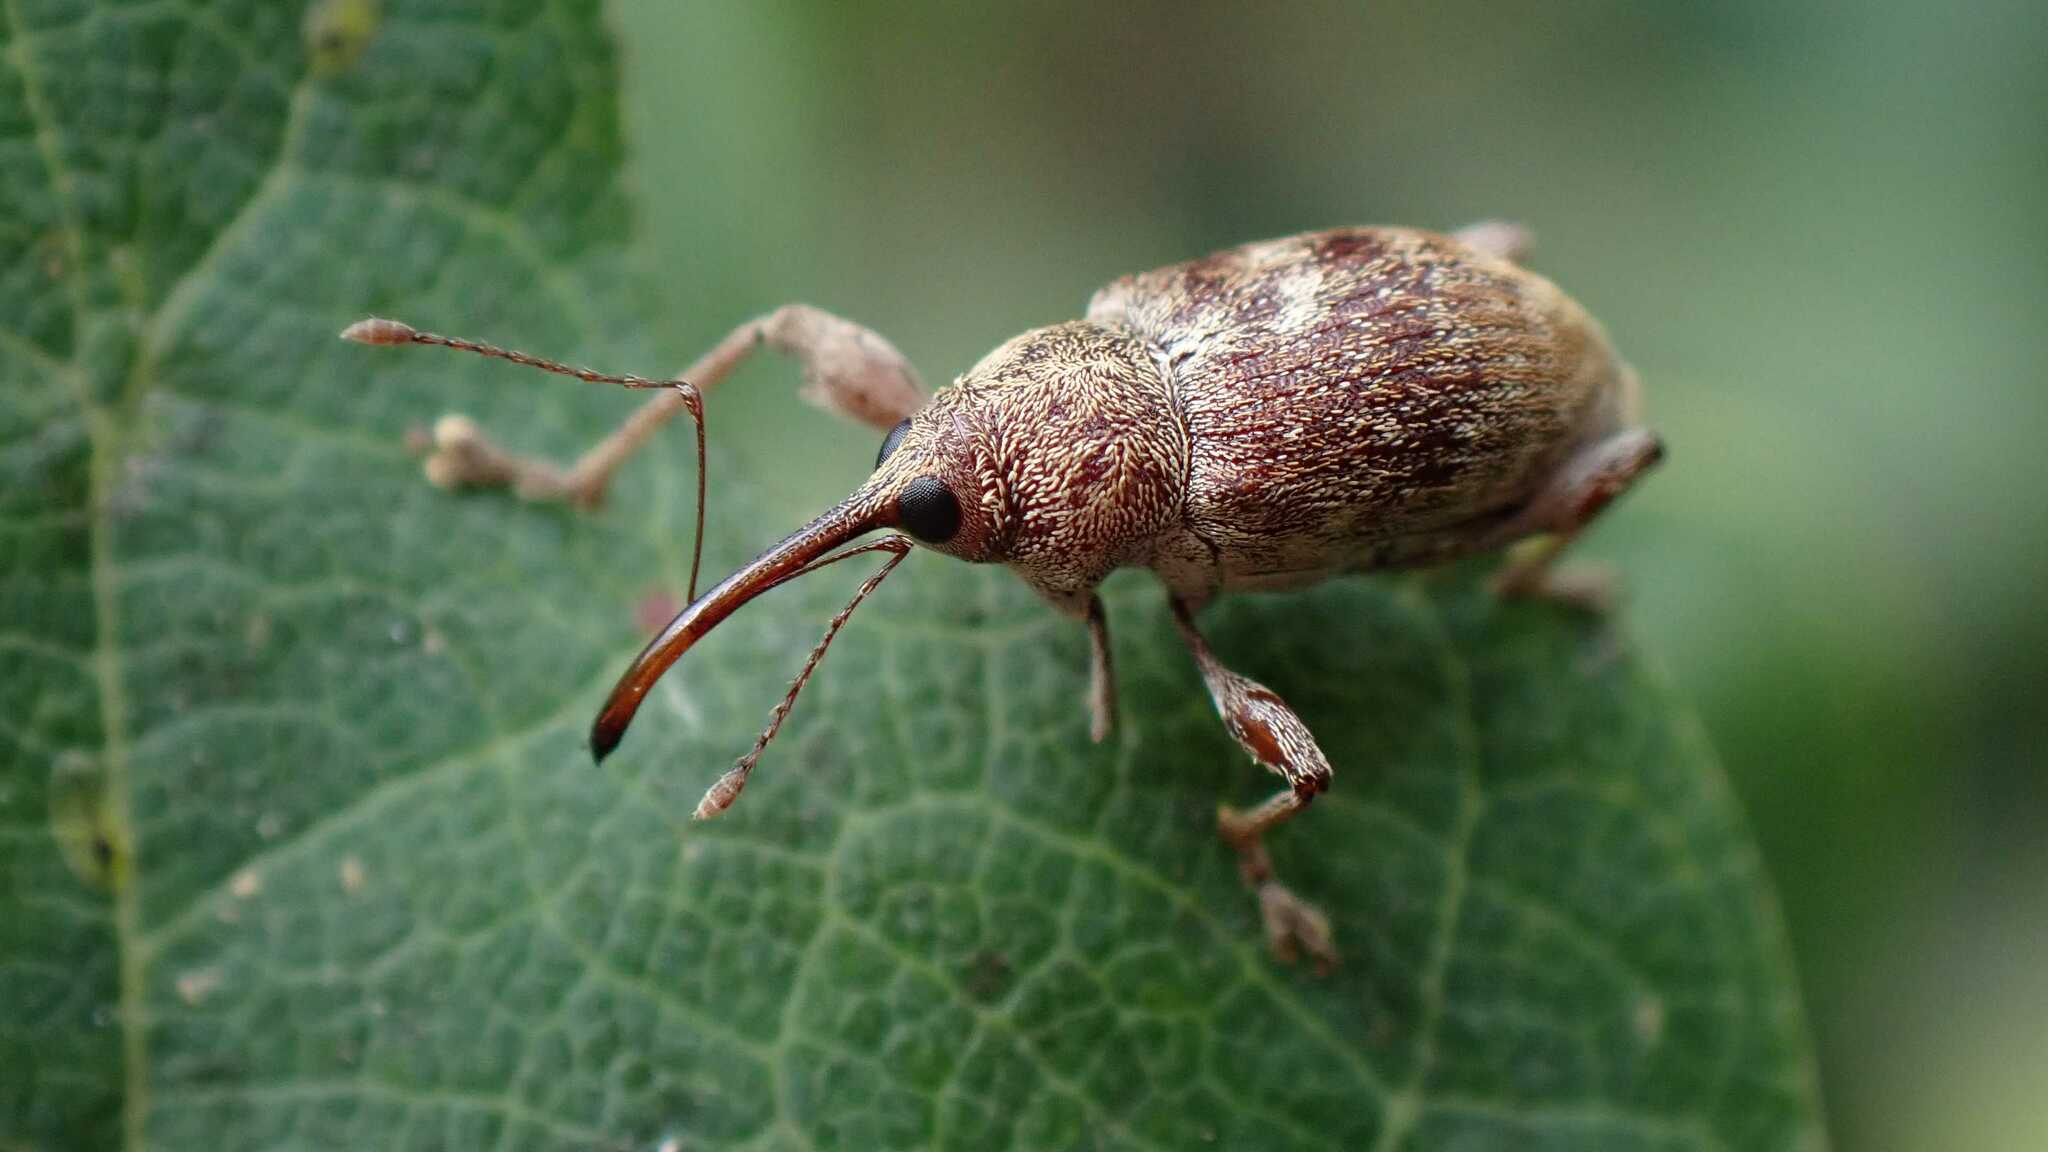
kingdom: Animalia
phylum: Arthropoda
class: Insecta
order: Coleoptera
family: Curculionidae
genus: Curculio
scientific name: Curculio elephas
